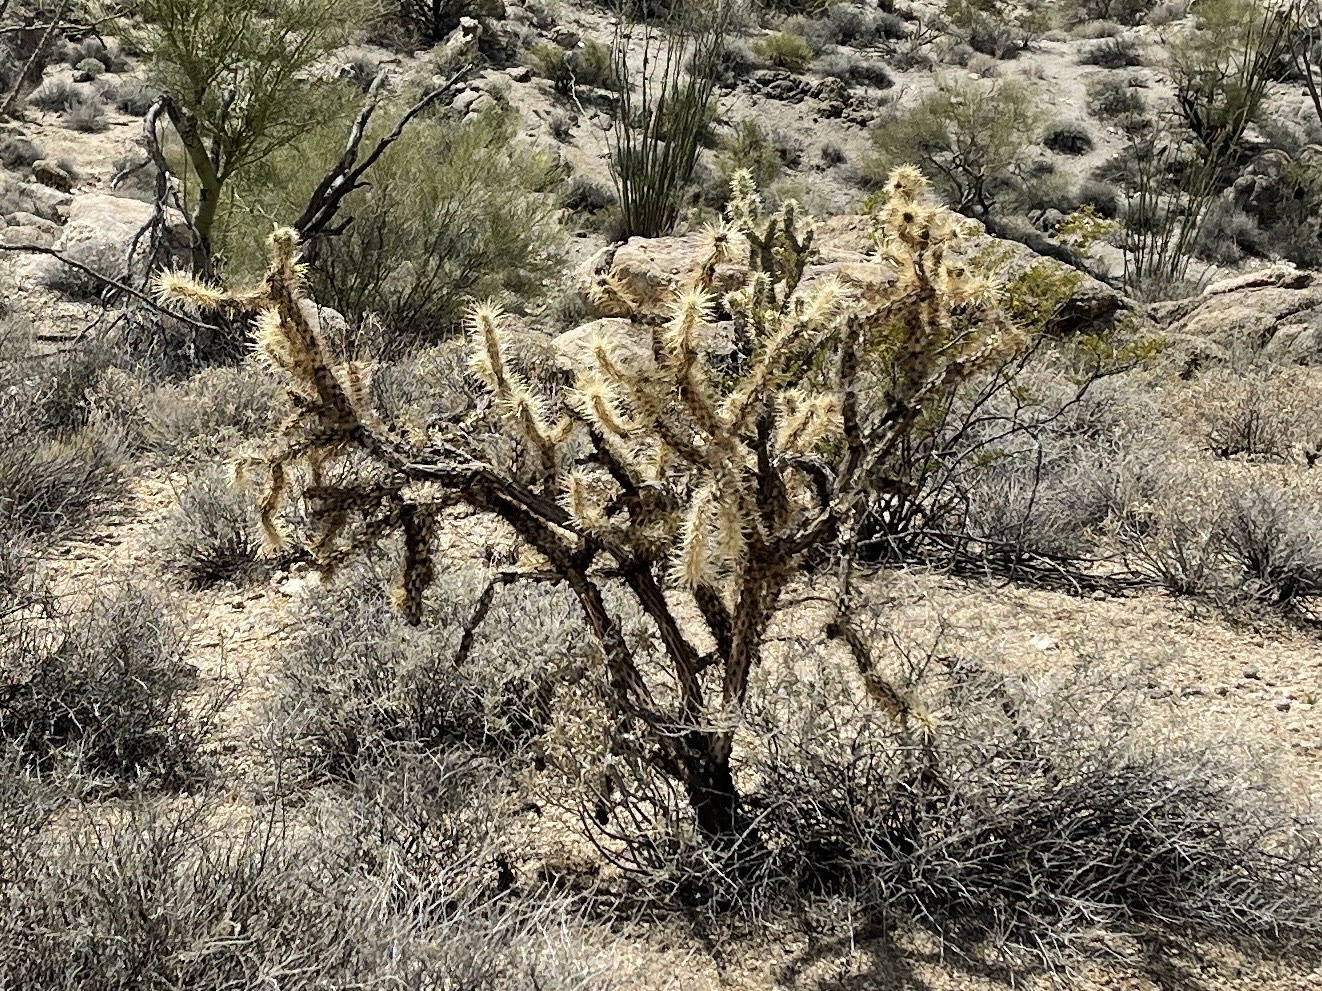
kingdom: Plantae
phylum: Tracheophyta
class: Magnoliopsida
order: Caryophyllales
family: Cactaceae
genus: Cylindropuntia
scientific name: Cylindropuntia acanthocarpa
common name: Buckhorn cholla
